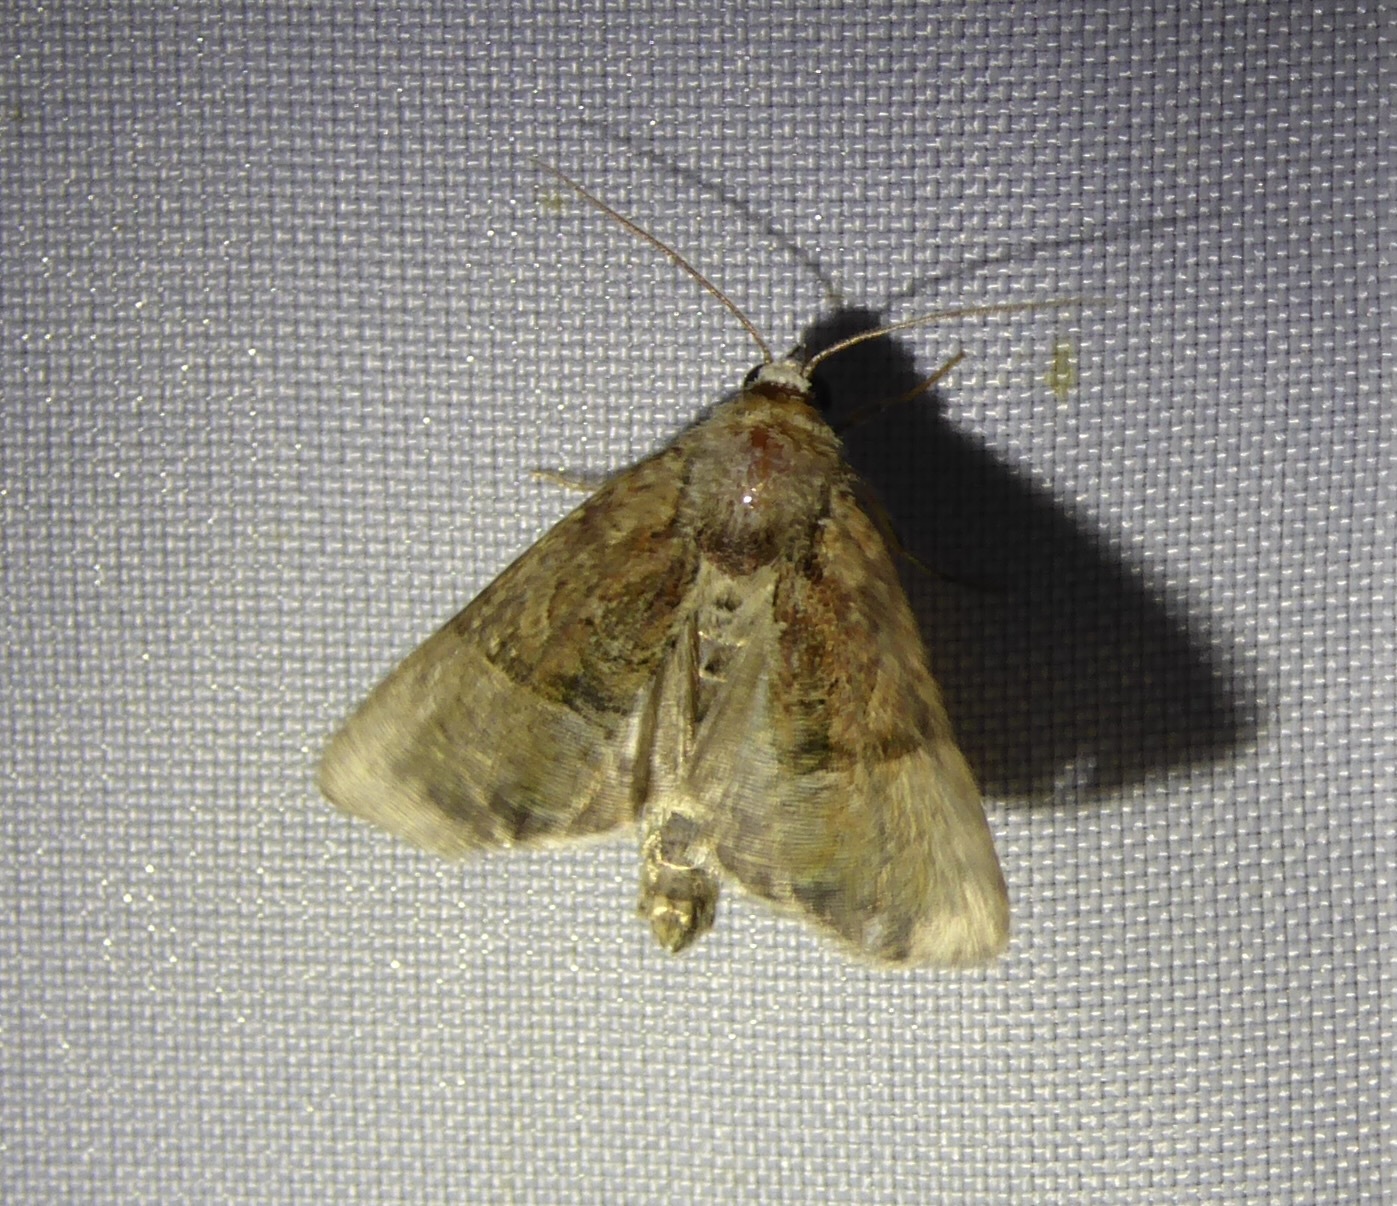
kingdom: Animalia
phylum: Arthropoda
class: Insecta
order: Lepidoptera
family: Noctuidae
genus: Mesoligia
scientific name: Mesoligia furuncula
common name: Cloaked minor
